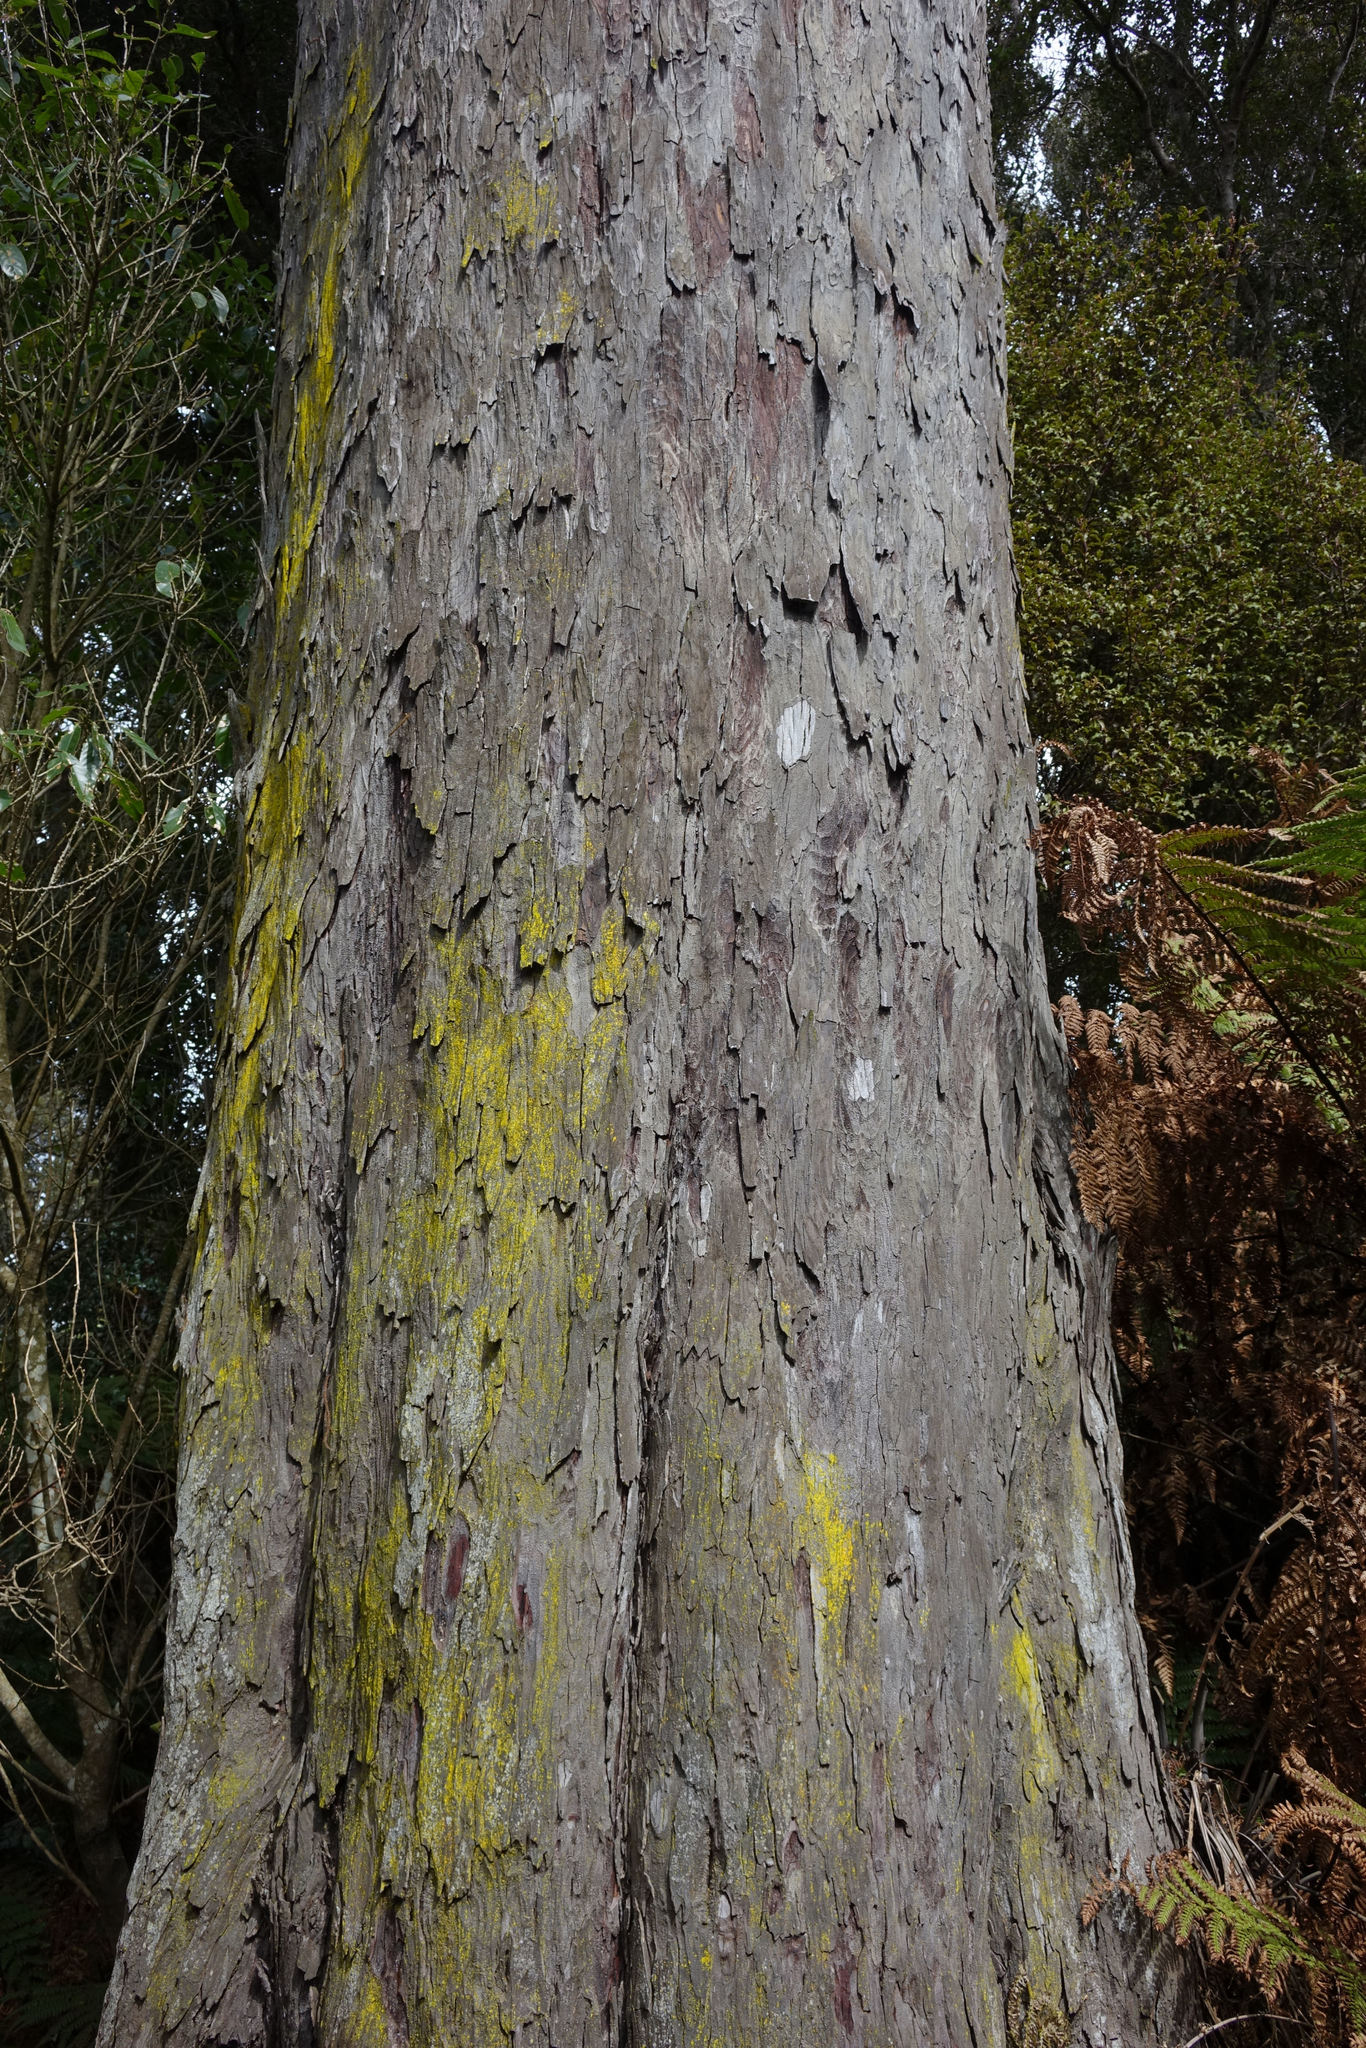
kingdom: Plantae
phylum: Tracheophyta
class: Pinopsida
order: Pinales
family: Podocarpaceae
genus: Dacrydium
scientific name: Dacrydium cupressinum
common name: Red pine
